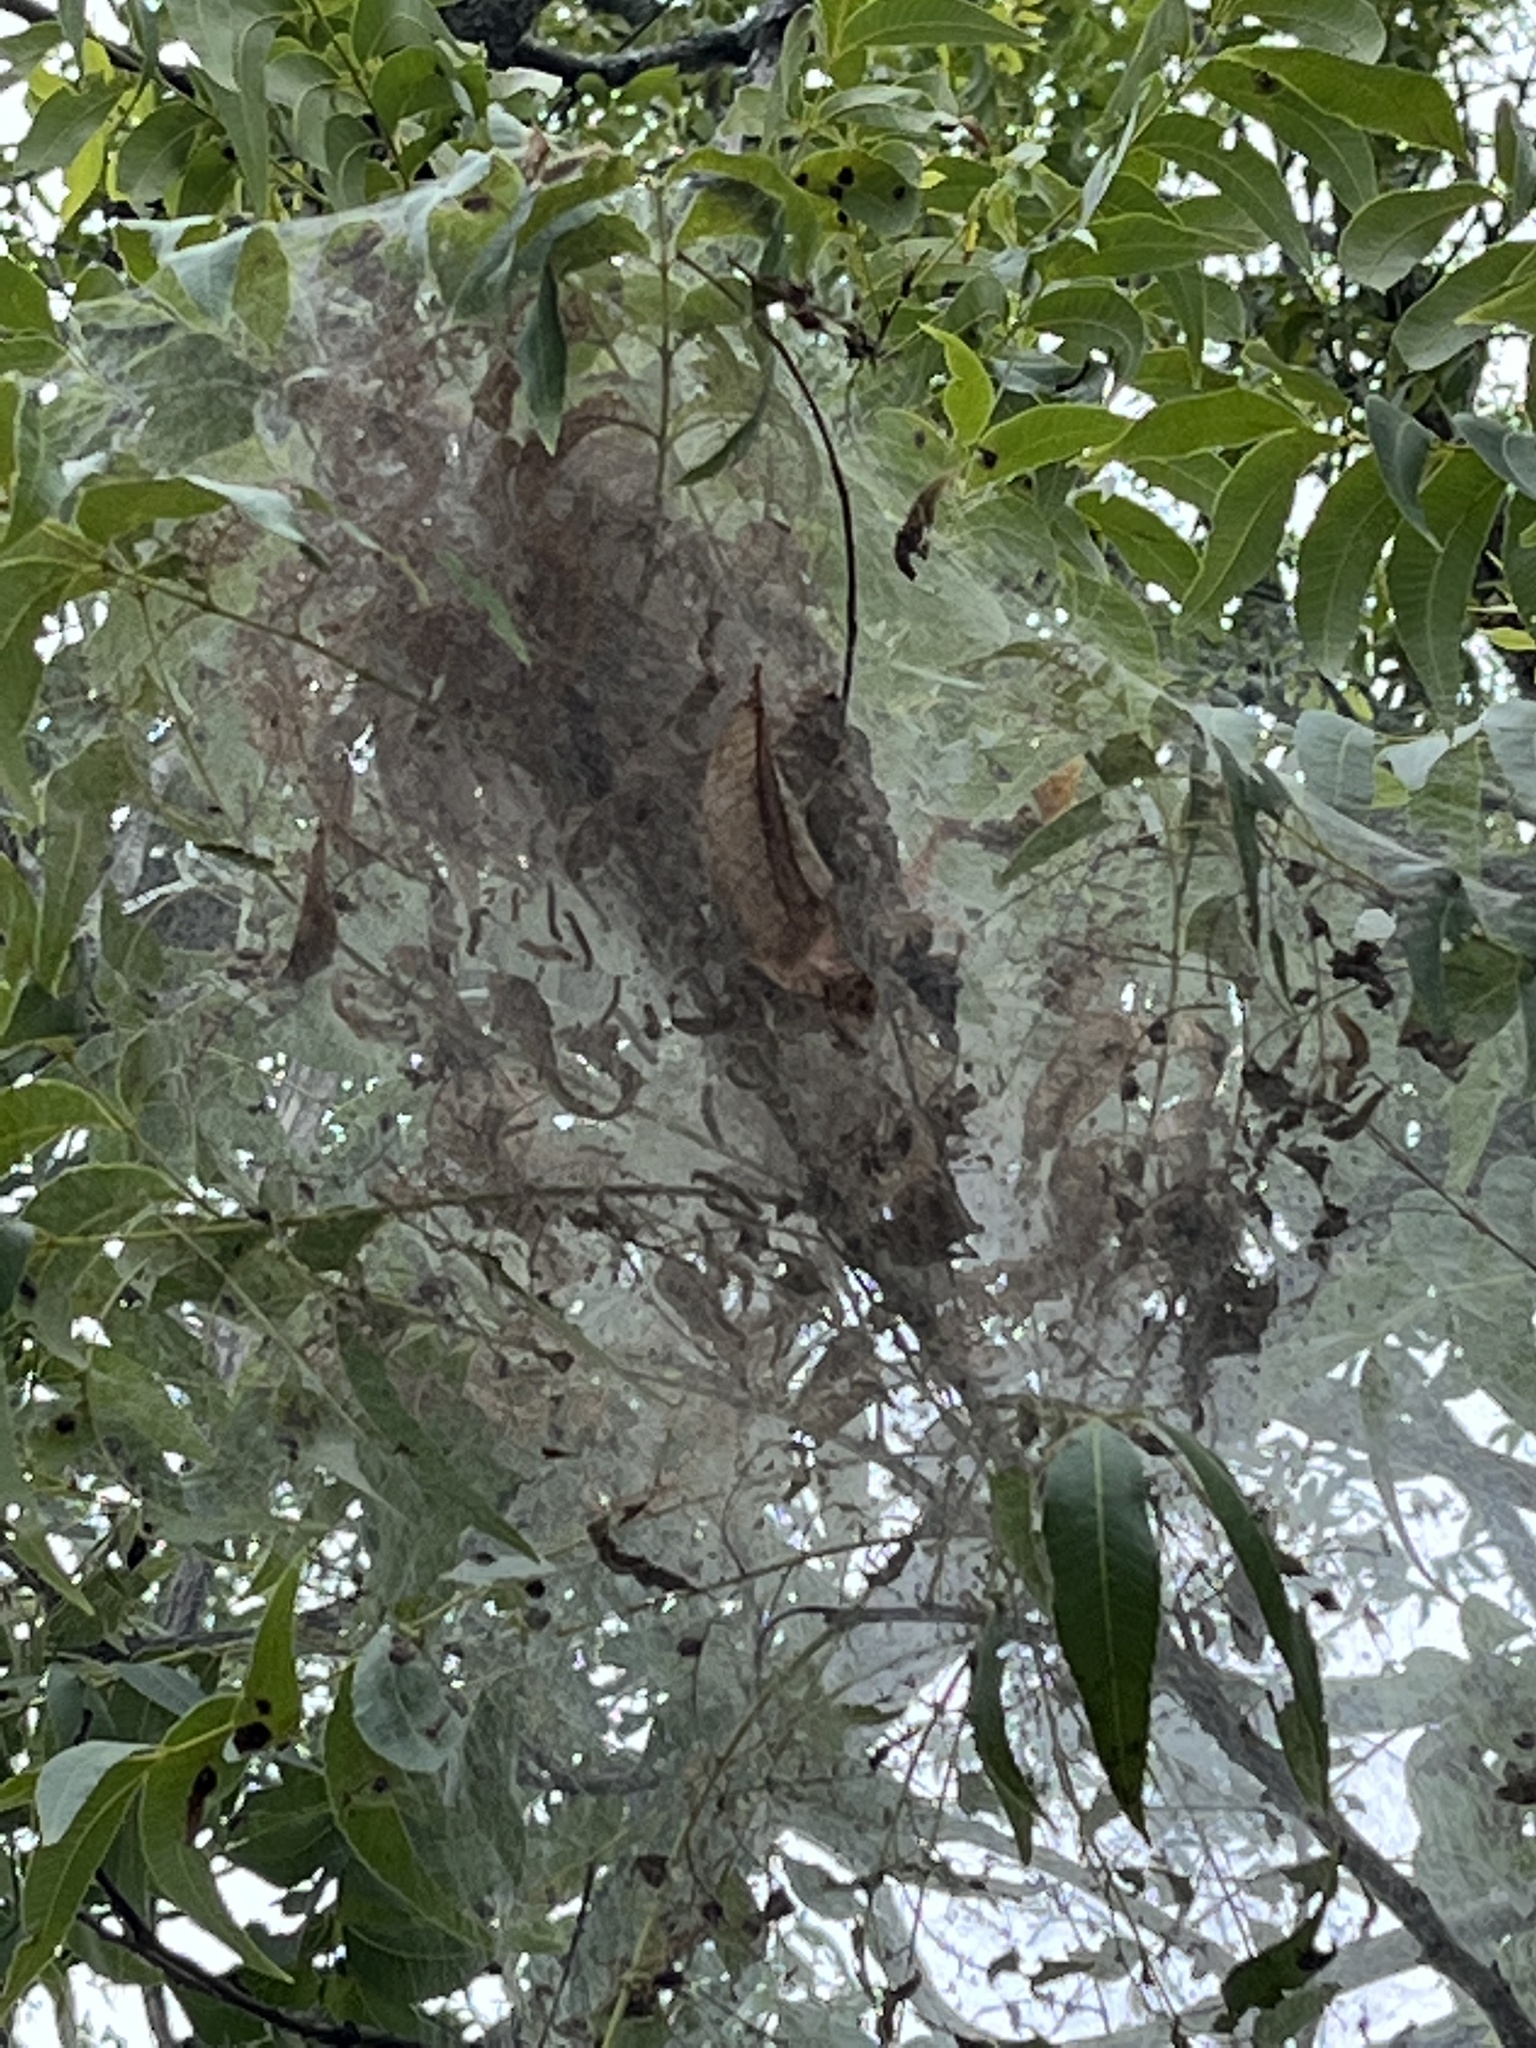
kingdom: Animalia
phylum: Arthropoda
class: Insecta
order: Lepidoptera
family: Erebidae
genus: Hyphantria
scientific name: Hyphantria cunea
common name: American white moth
